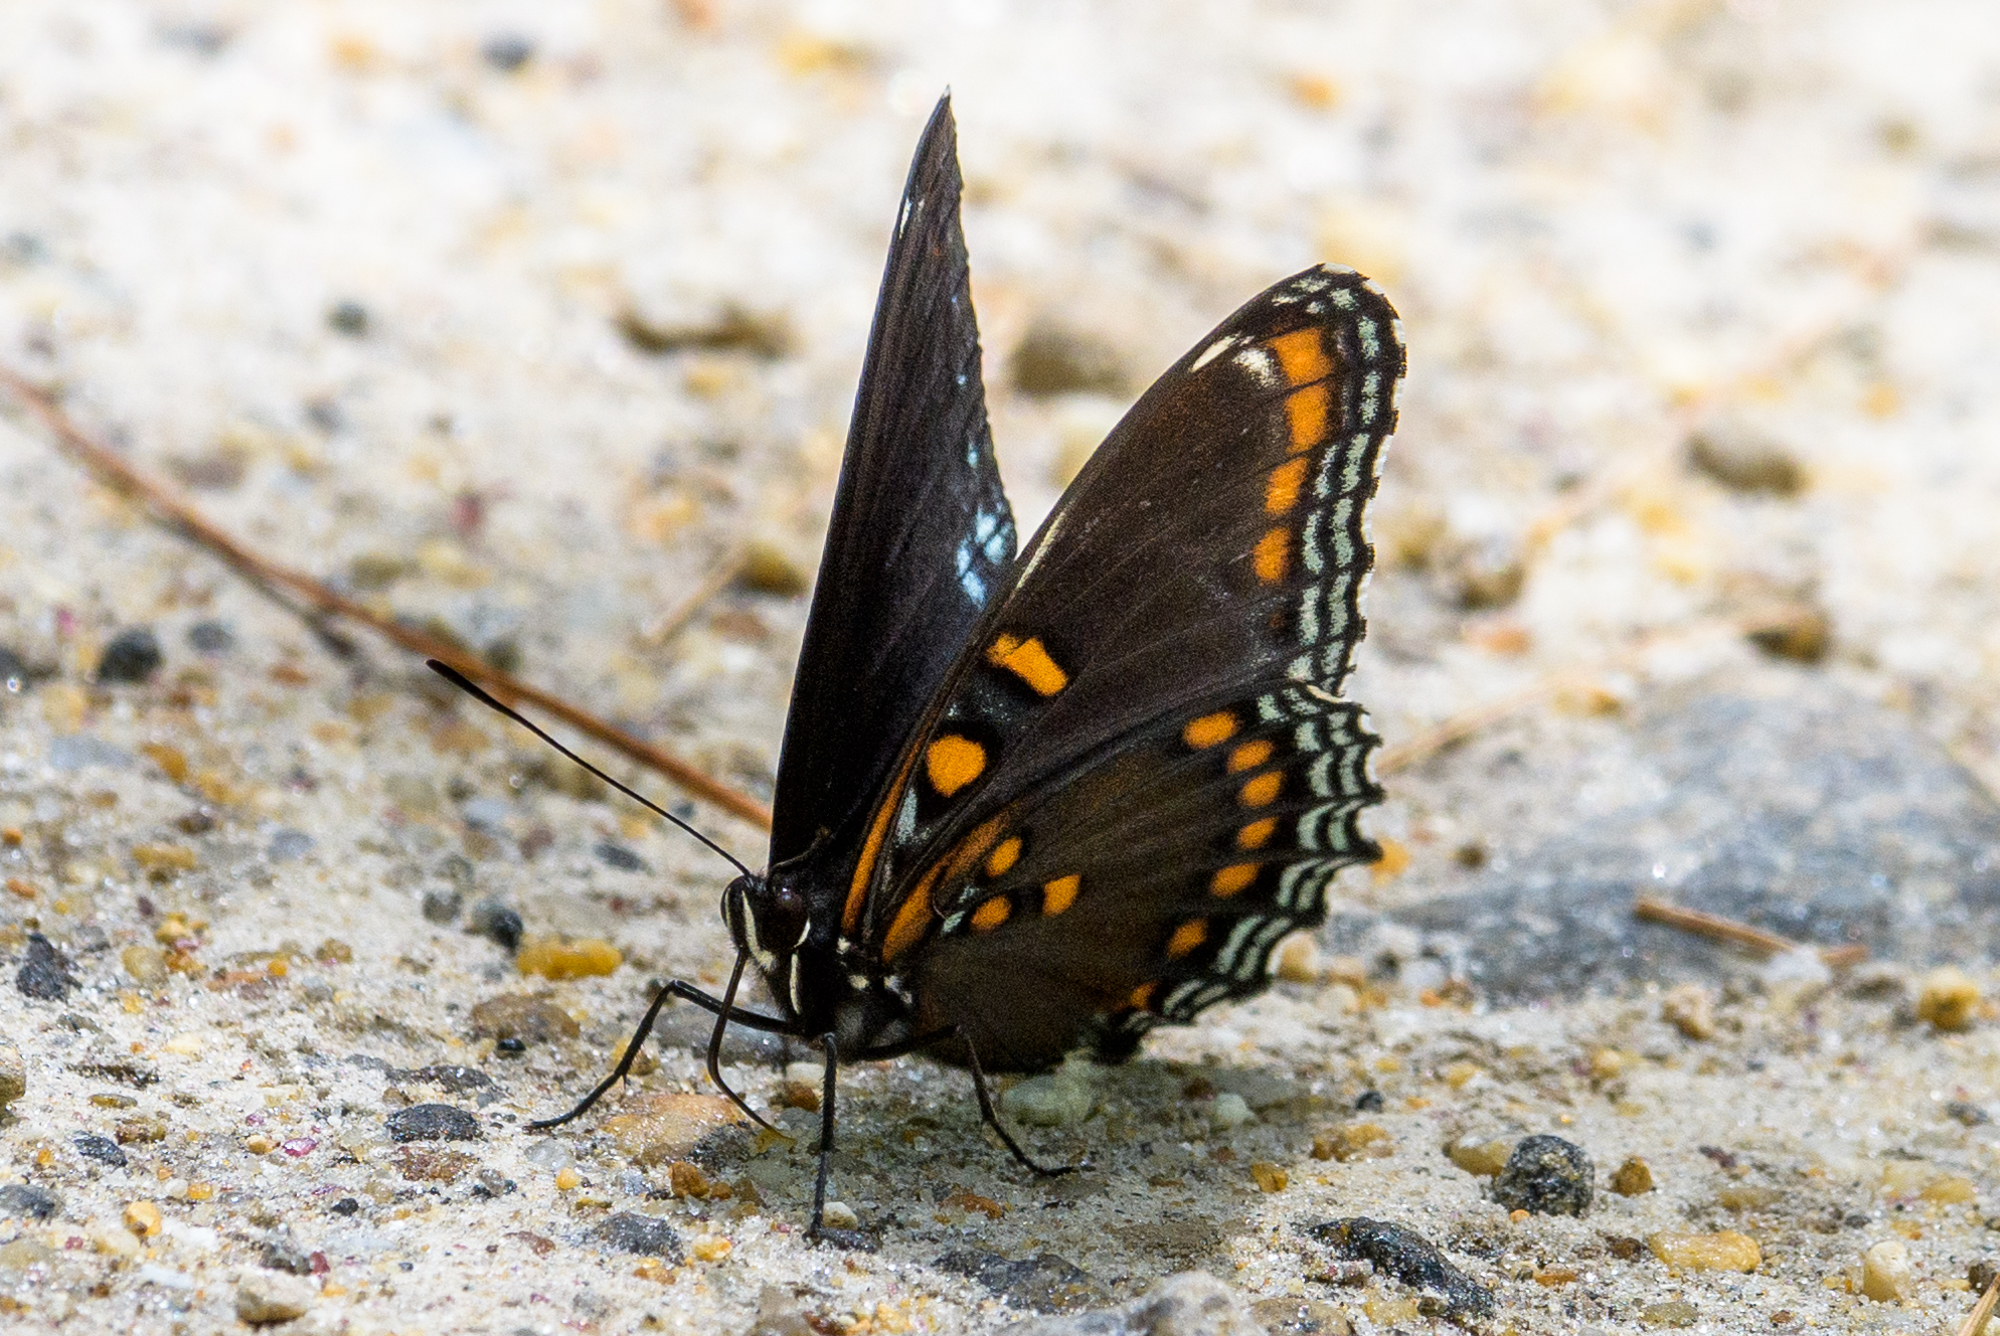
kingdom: Animalia
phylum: Arthropoda
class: Insecta
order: Lepidoptera
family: Nymphalidae
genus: Limenitis
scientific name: Limenitis arthemis
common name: Red-spotted admiral
